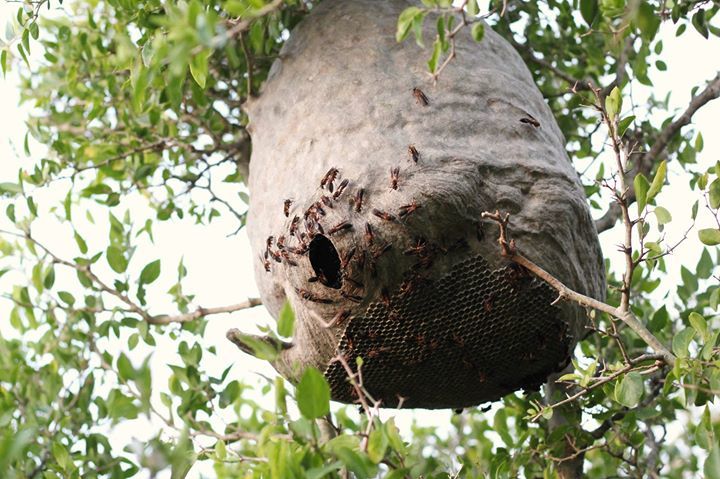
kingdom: Animalia
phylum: Arthropoda
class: Insecta
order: Hymenoptera
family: Eumenidae
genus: Polybia
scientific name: Polybia sericea
